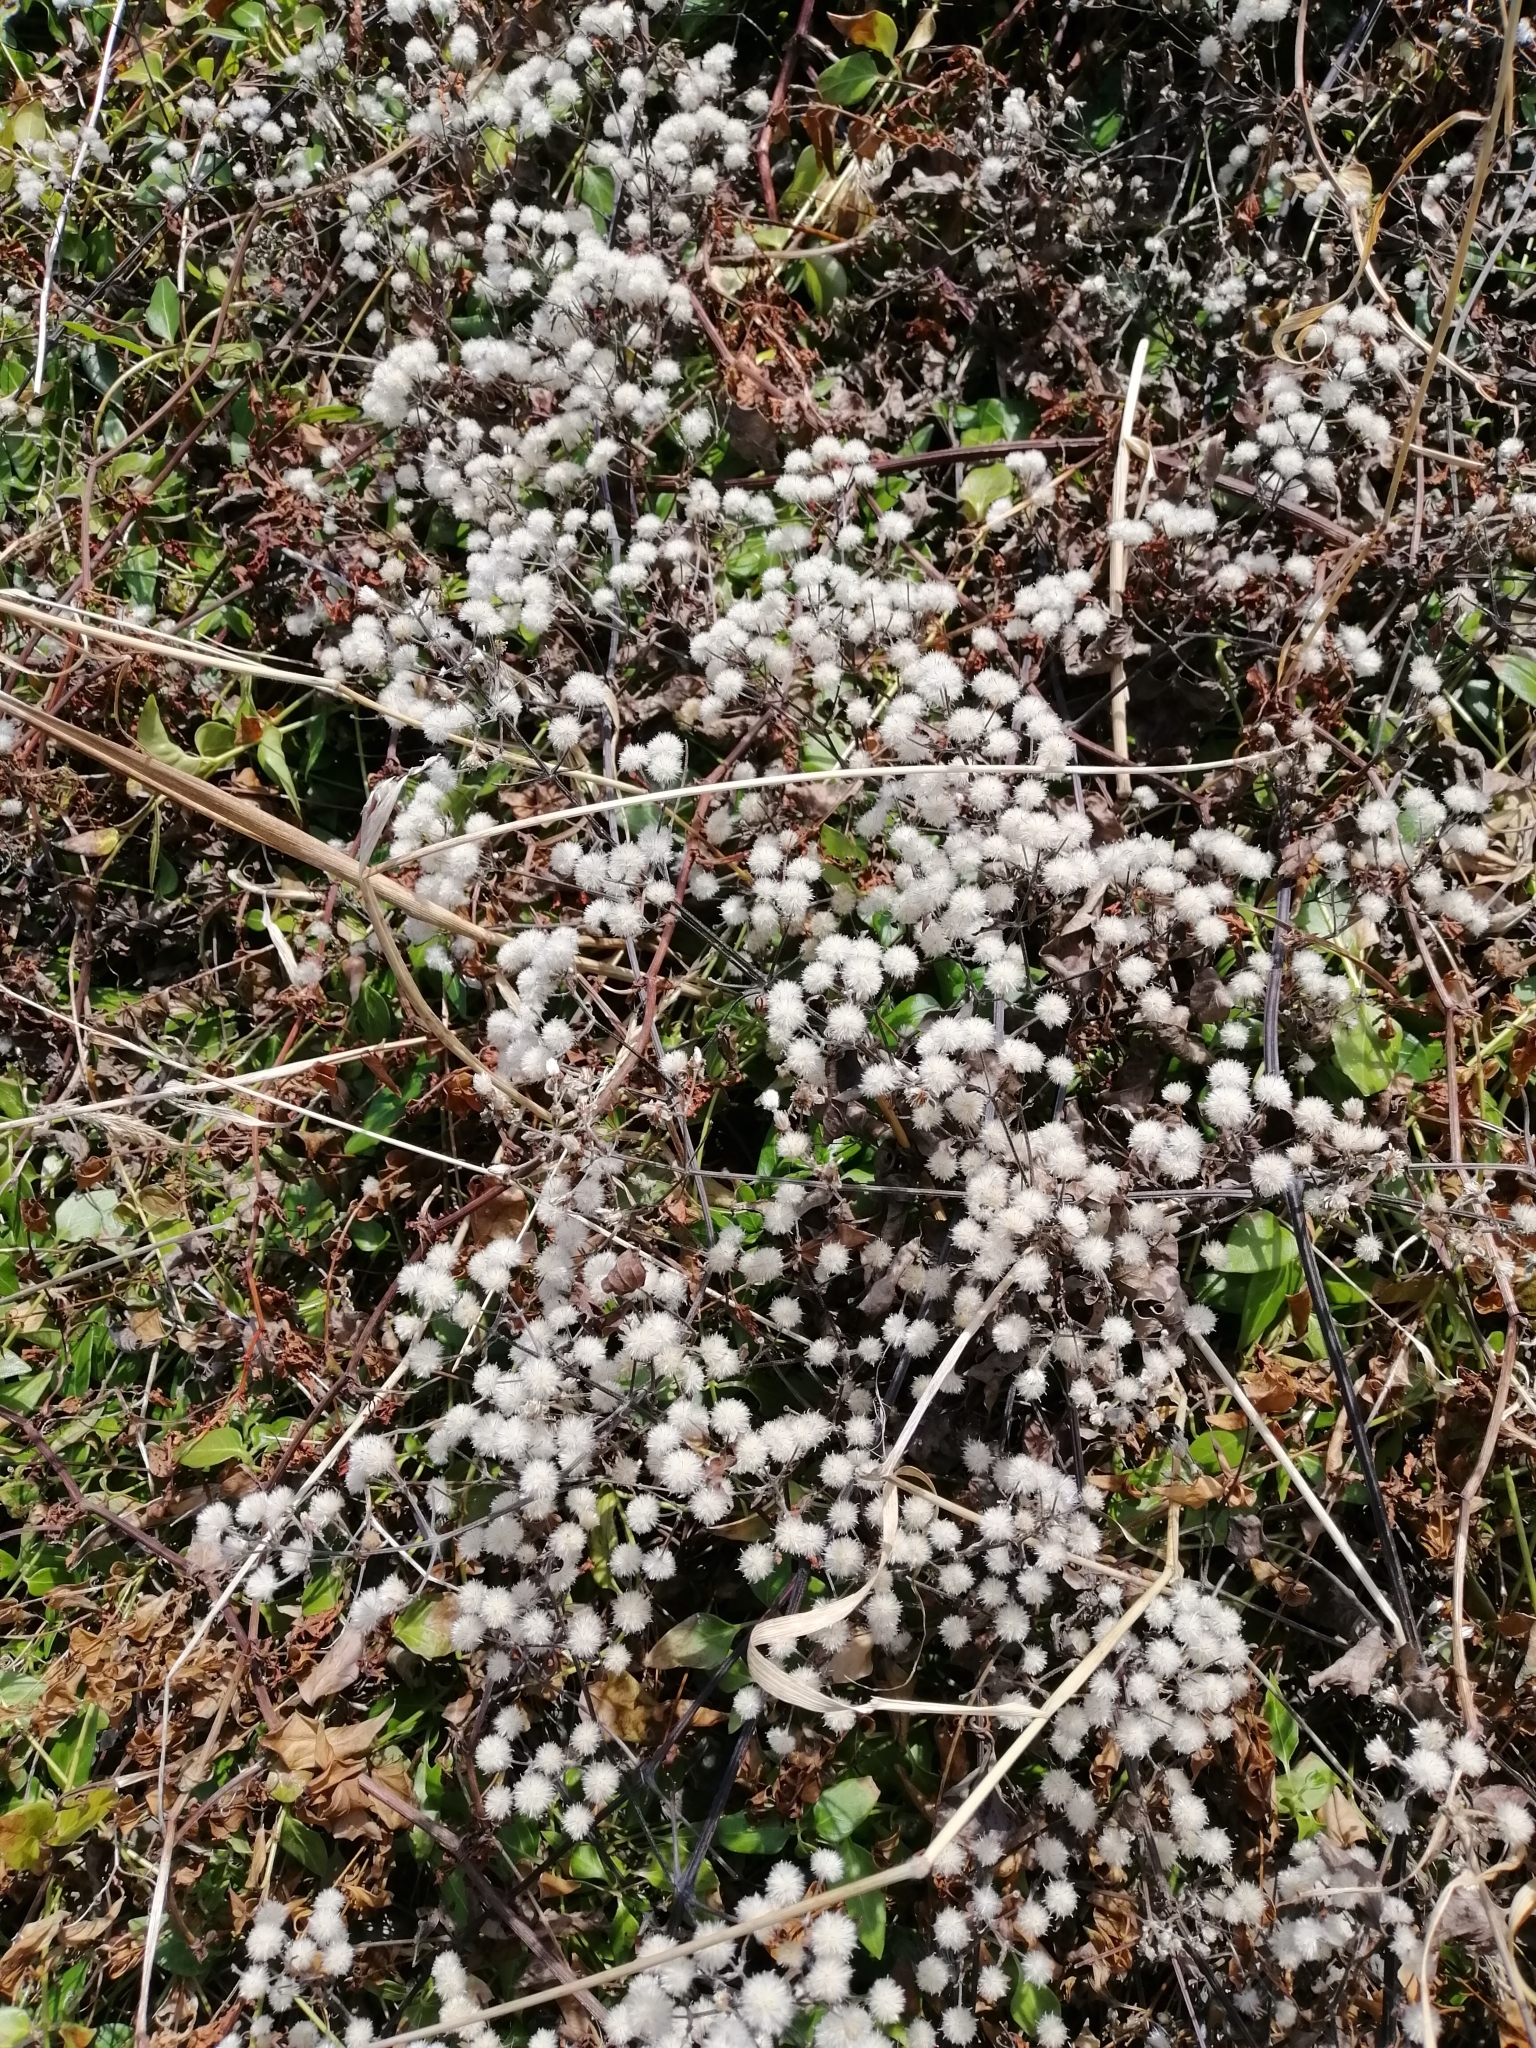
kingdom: Plantae
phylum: Tracheophyta
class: Magnoliopsida
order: Ranunculales
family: Ranunculaceae
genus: Clematis
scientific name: Clematis vitalba
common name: Evergreen clematis
